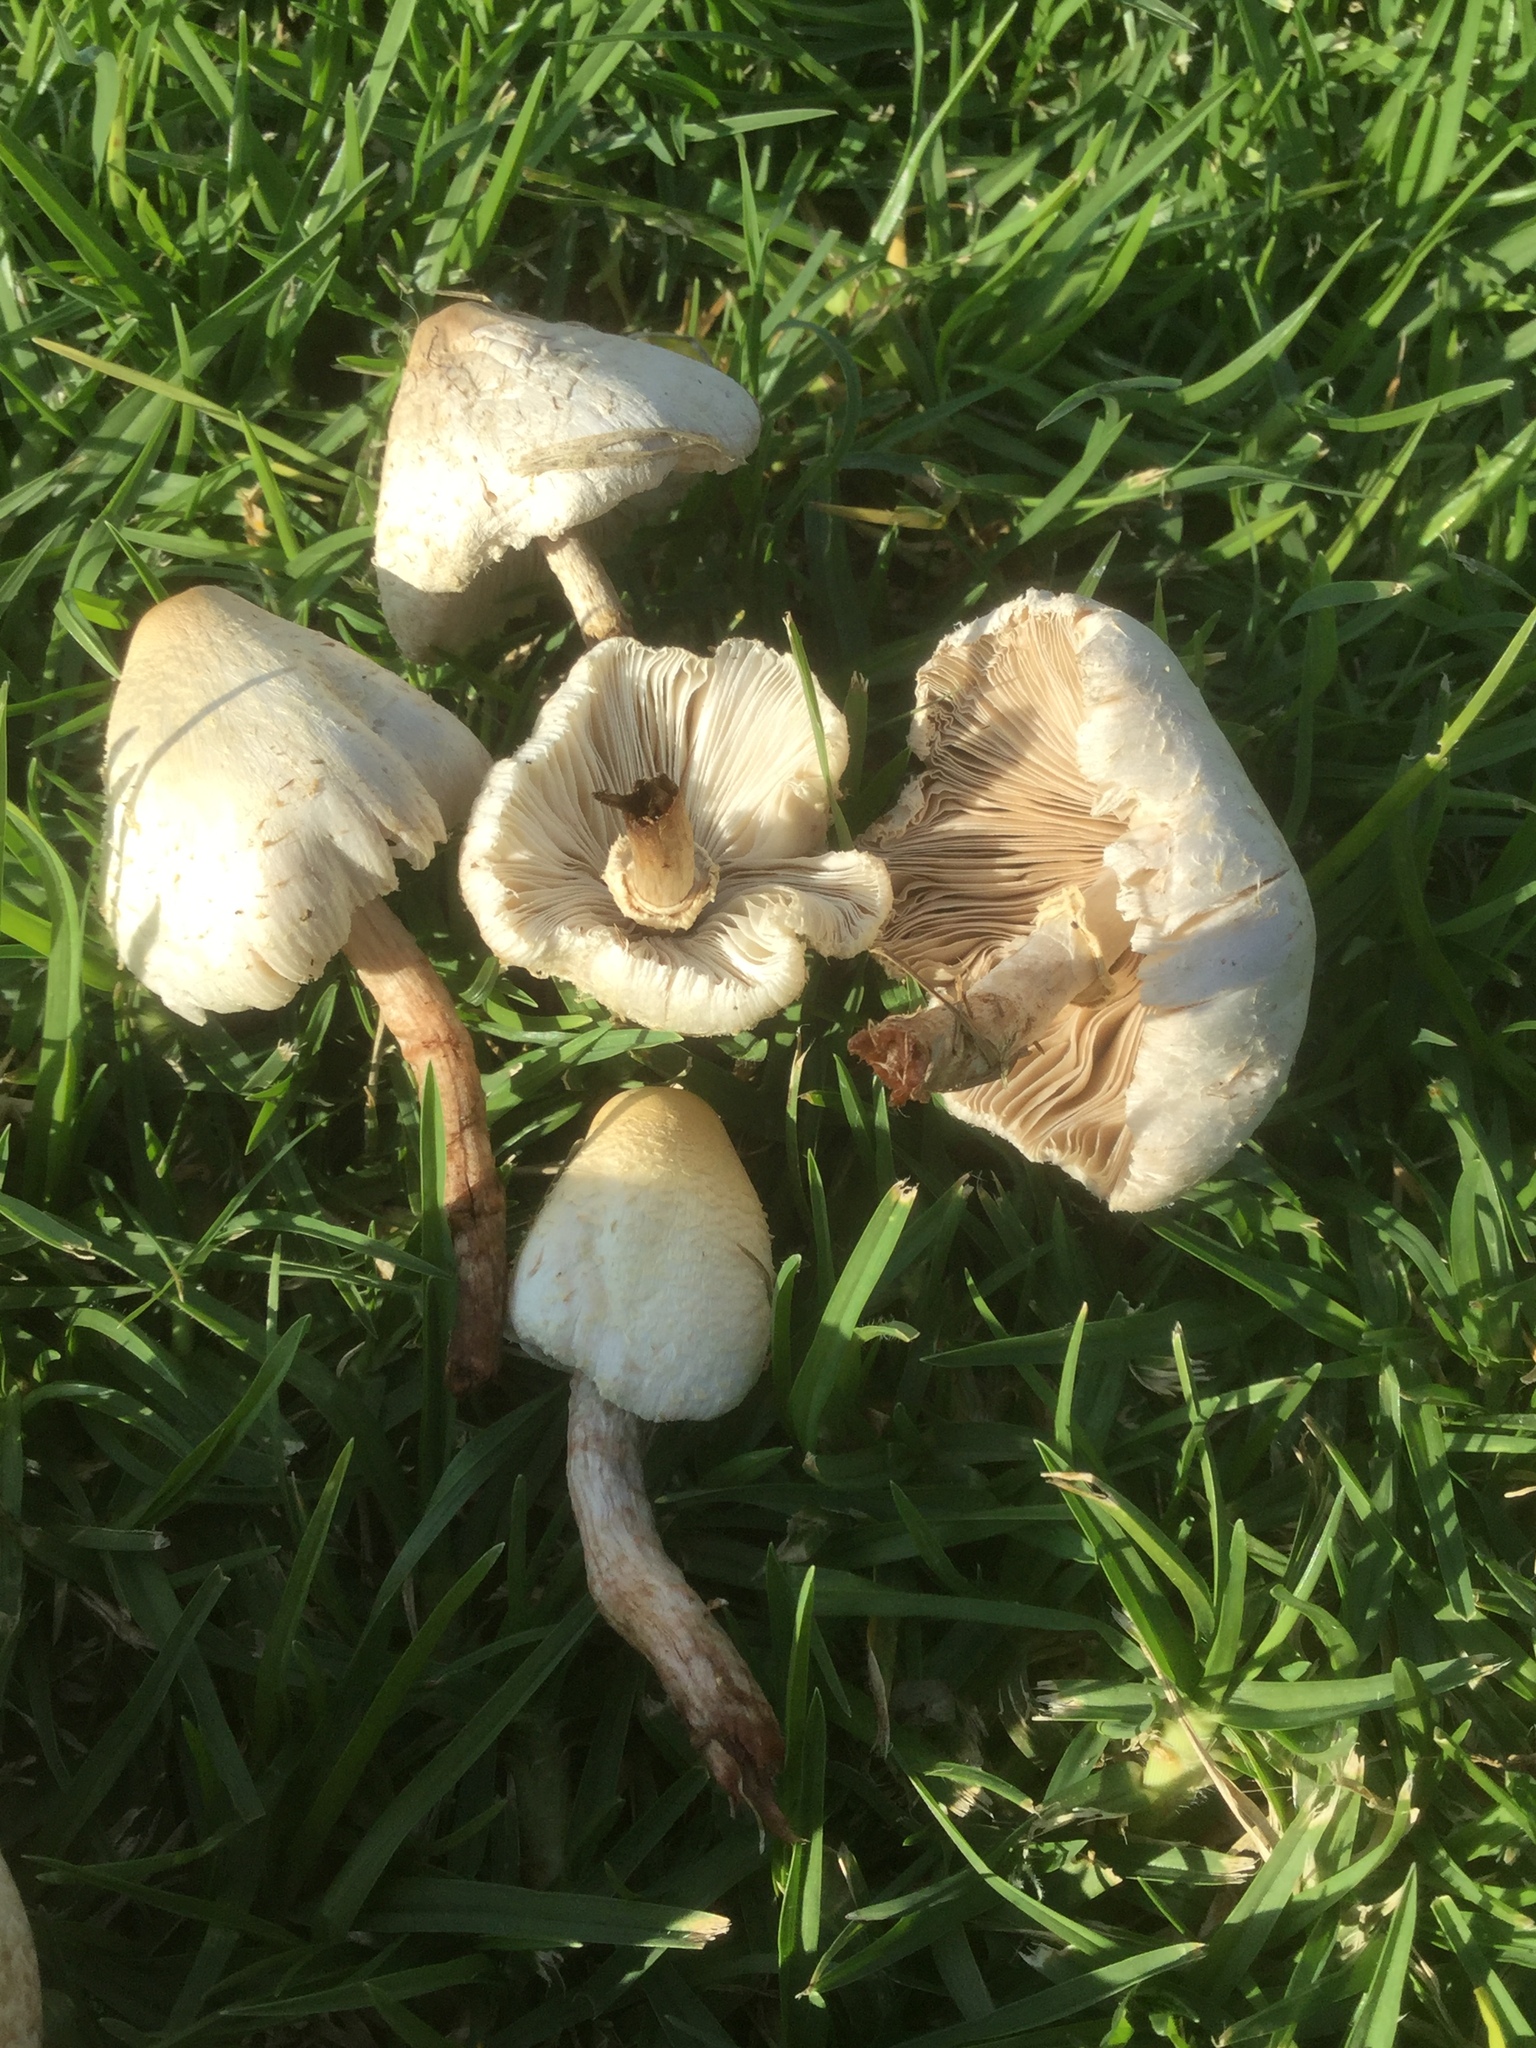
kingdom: Fungi
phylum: Basidiomycota
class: Agaricomycetes
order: Agaricales
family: Agaricaceae
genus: Chlorophyllum
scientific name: Chlorophyllum hortense
